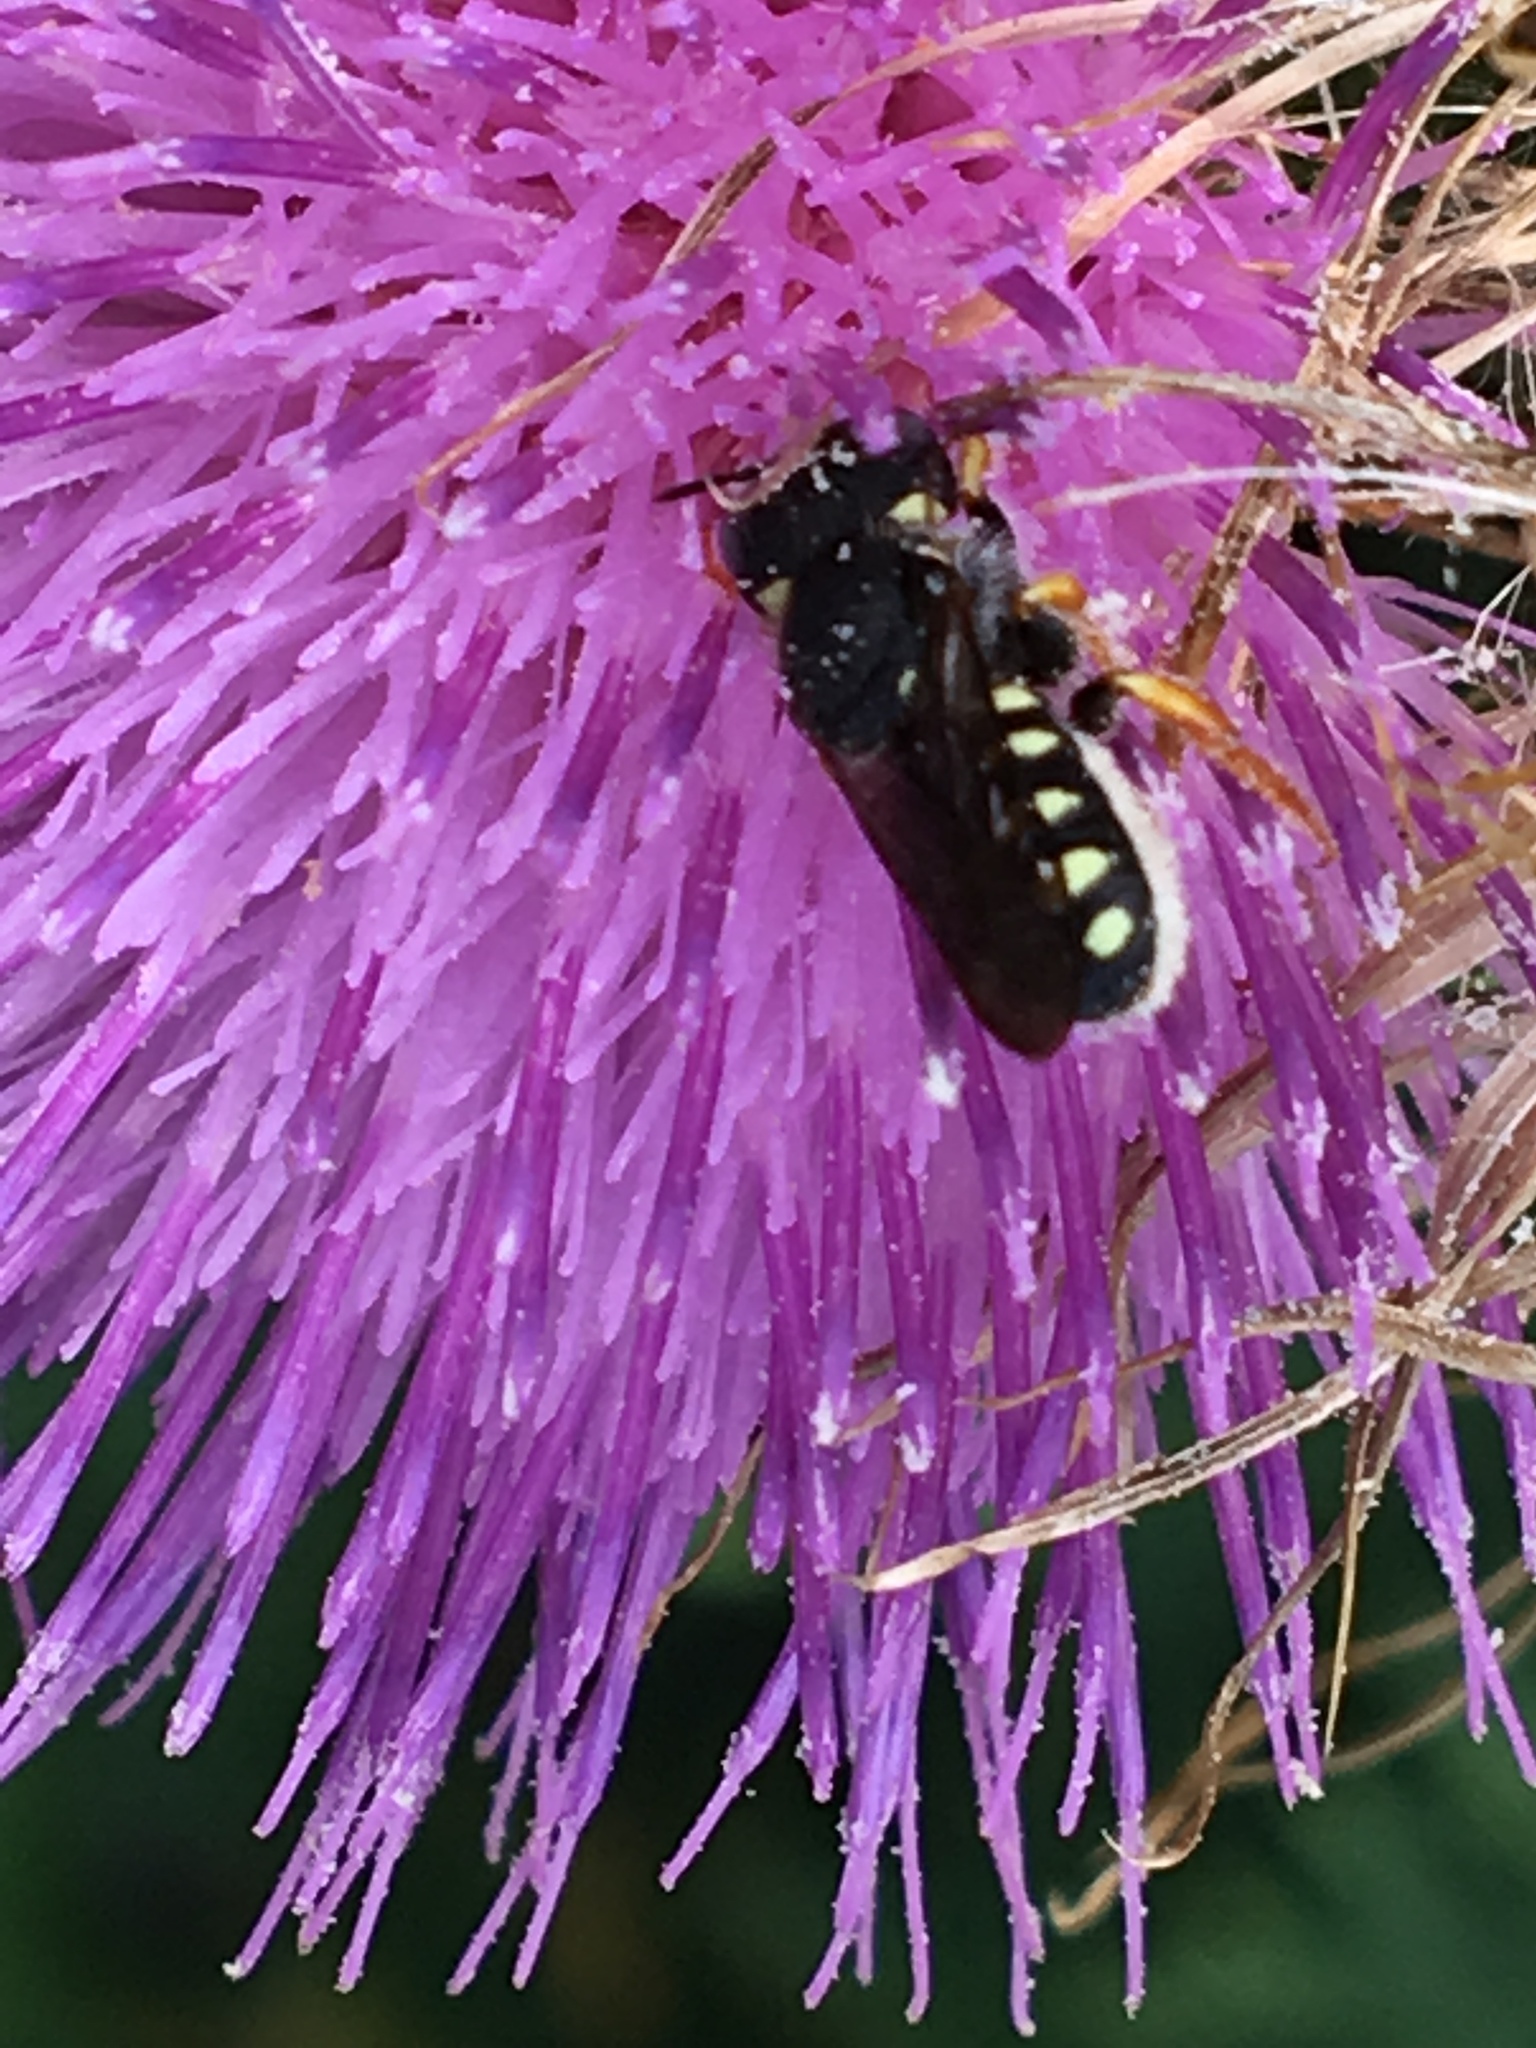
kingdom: Animalia
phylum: Arthropoda
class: Insecta
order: Hymenoptera
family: Megachilidae
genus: Pseudoanthidium
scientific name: Pseudoanthidium nanum
